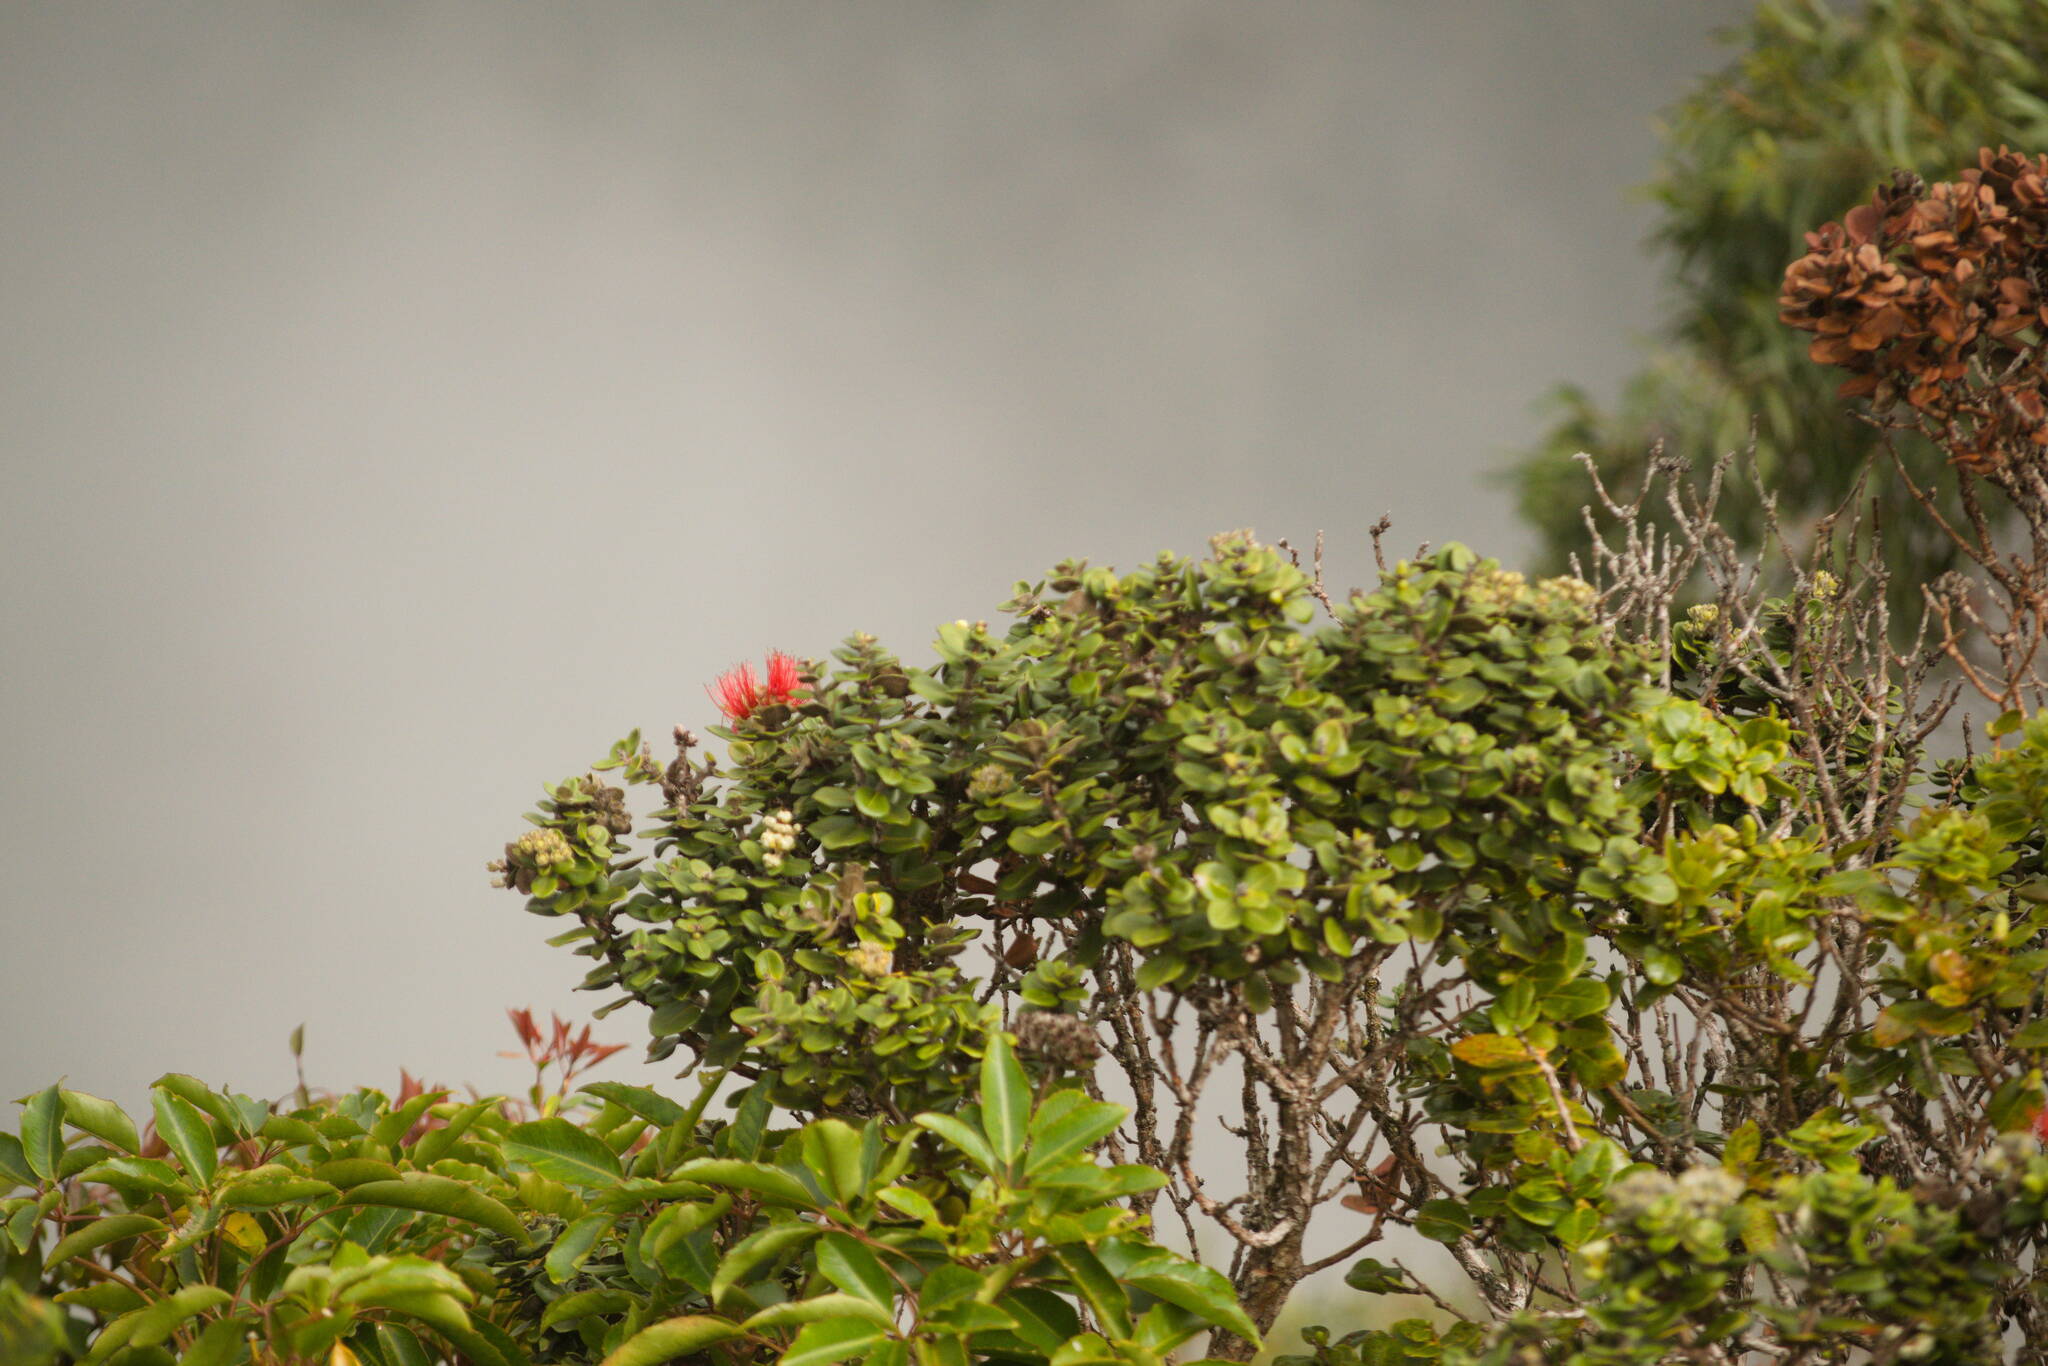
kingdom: Plantae
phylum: Tracheophyta
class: Magnoliopsida
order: Myrtales
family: Myrtaceae
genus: Metrosideros
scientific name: Metrosideros polymorpha
